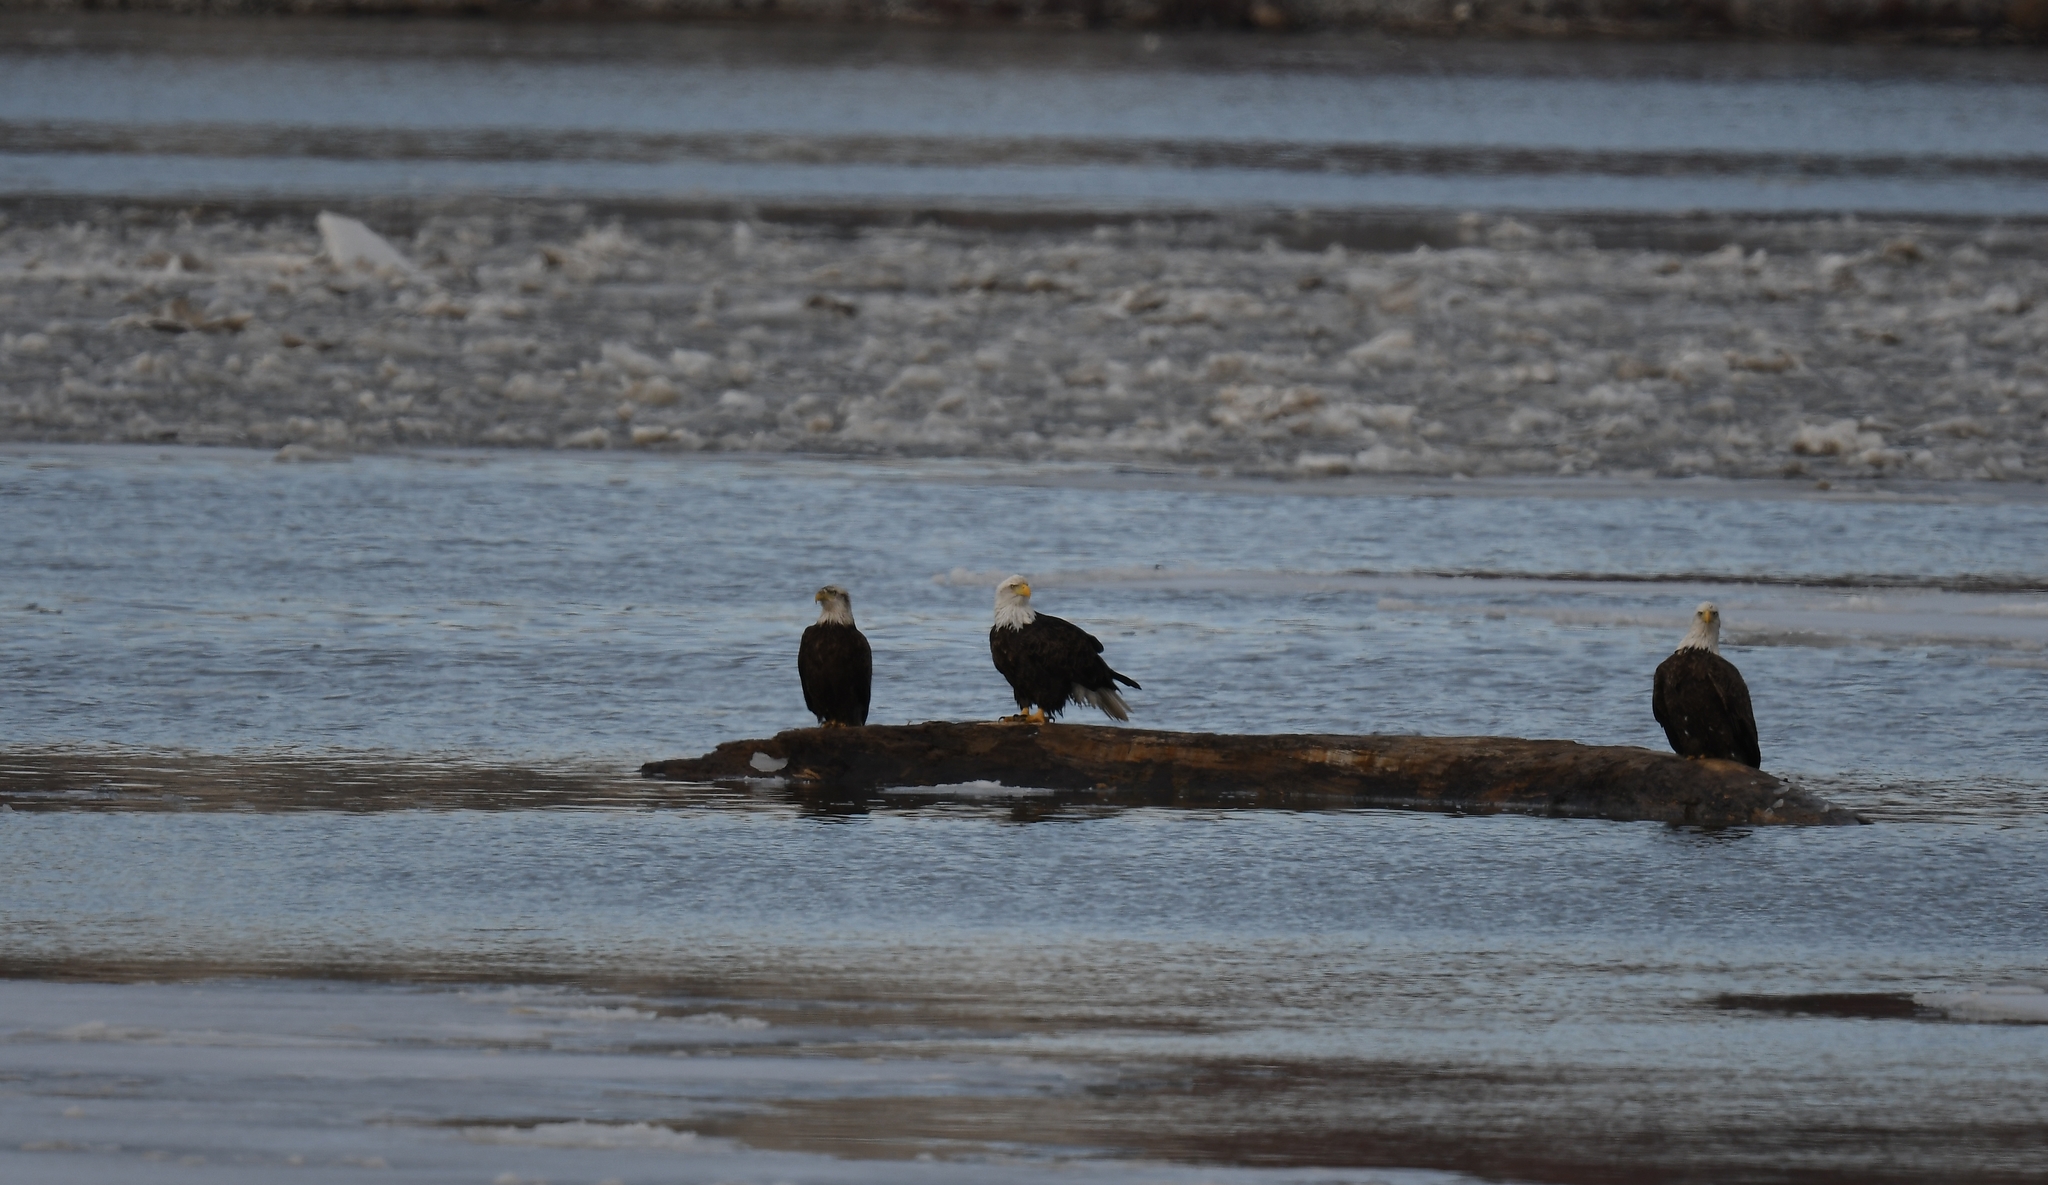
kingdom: Animalia
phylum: Chordata
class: Aves
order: Accipitriformes
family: Accipitridae
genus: Haliaeetus
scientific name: Haliaeetus leucocephalus
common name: Bald eagle
